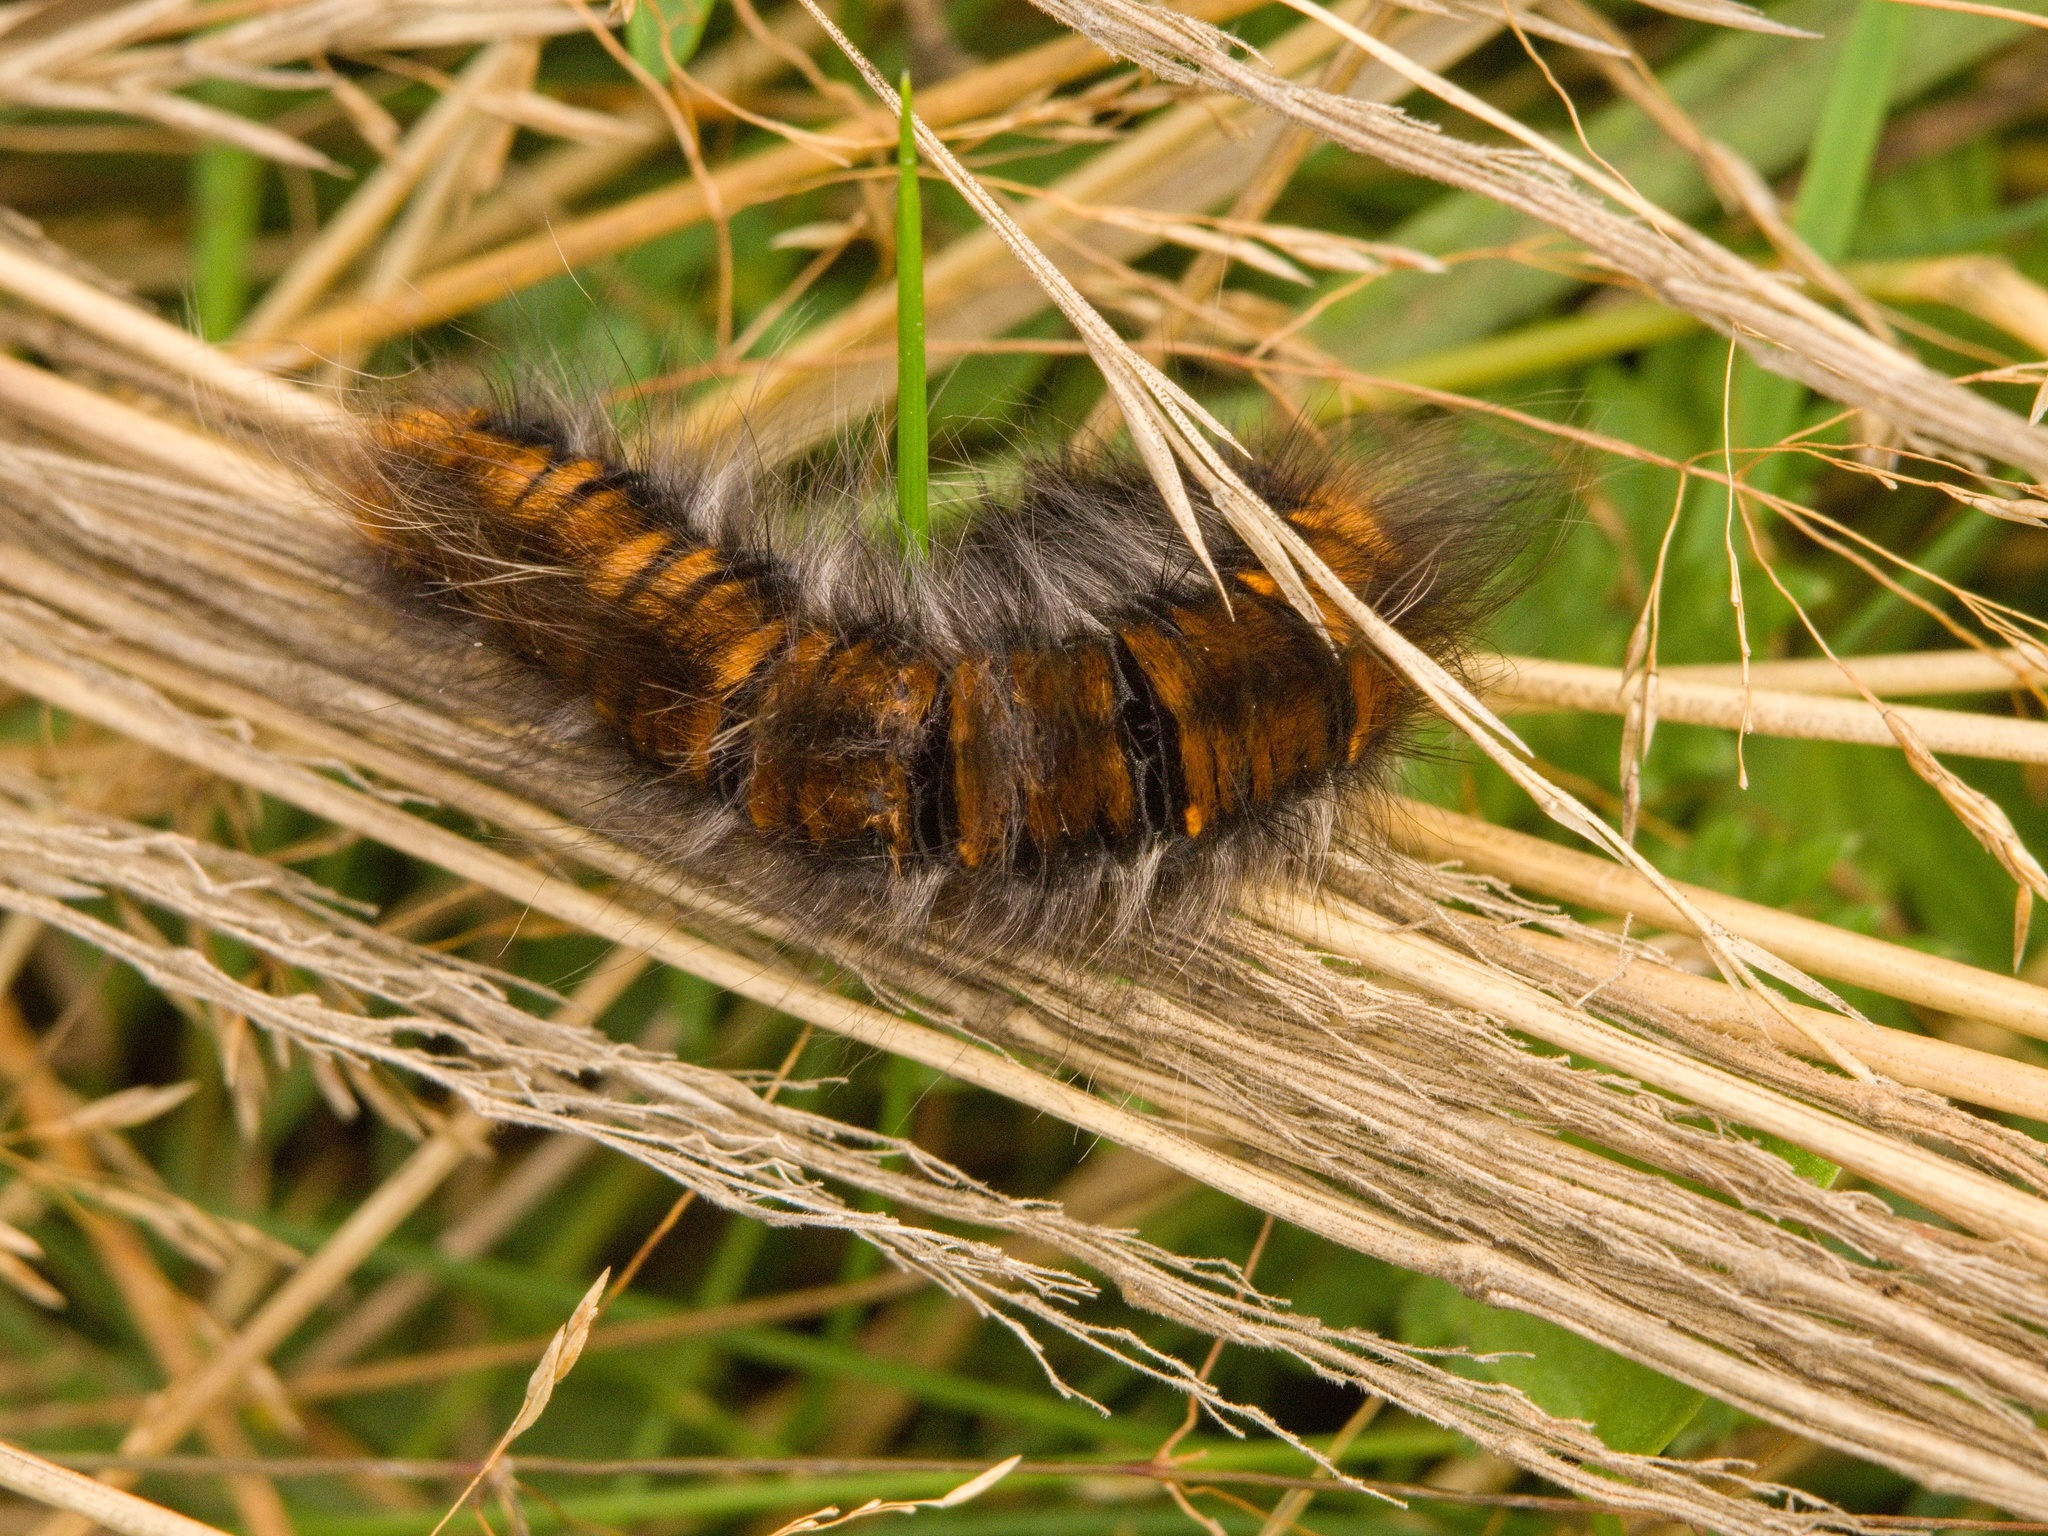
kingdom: Animalia
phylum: Arthropoda
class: Insecta
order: Lepidoptera
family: Lasiocampidae
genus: Macrothylacia
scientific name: Macrothylacia rubi
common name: Fox moth
